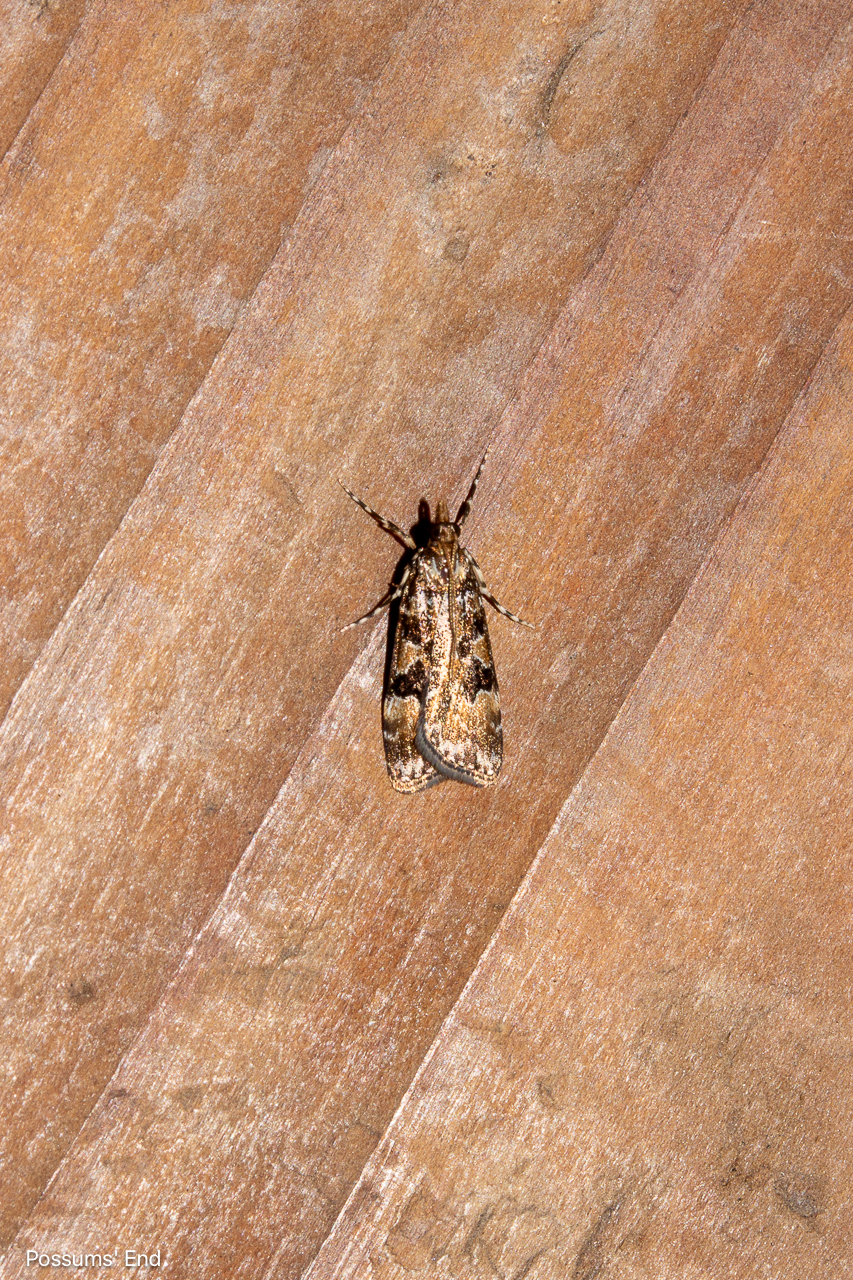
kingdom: Animalia
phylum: Arthropoda
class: Insecta
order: Lepidoptera
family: Crambidae
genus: Scoparia
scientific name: Scoparia ustimacula
